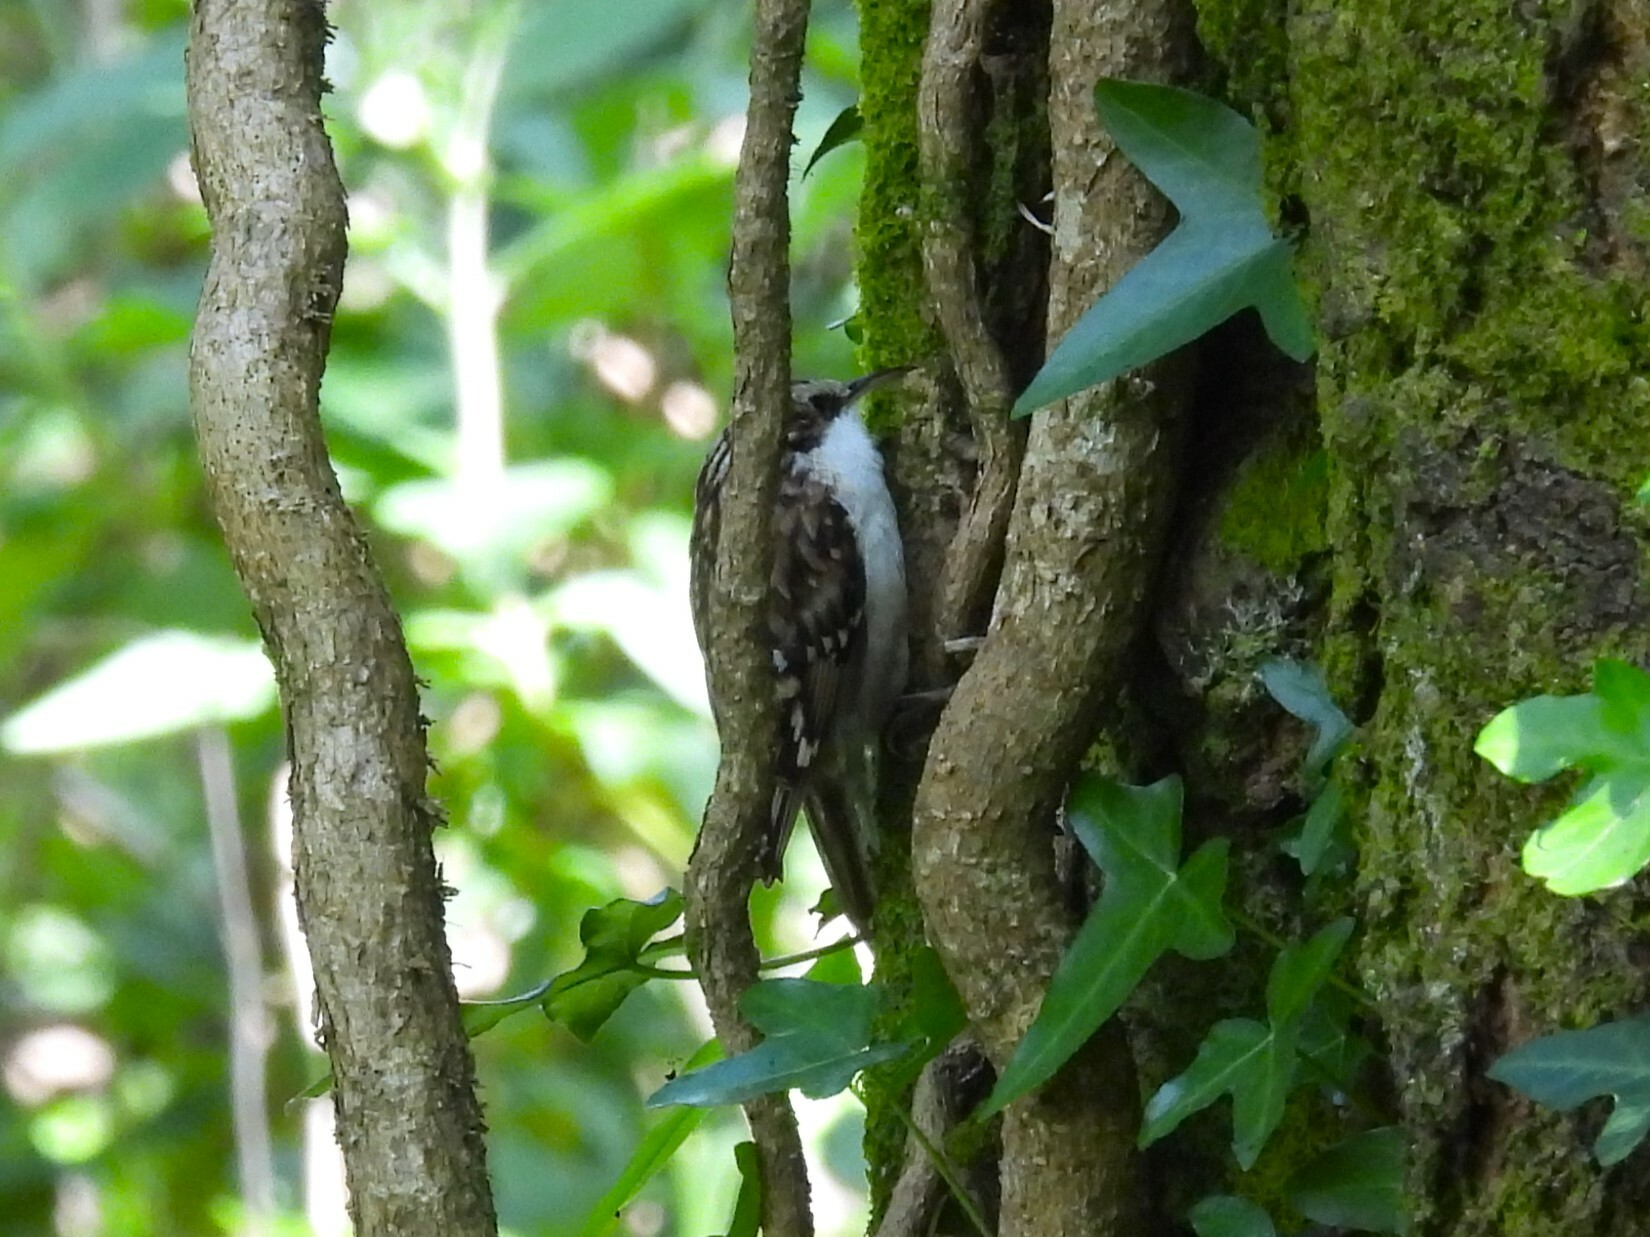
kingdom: Animalia
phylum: Chordata
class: Aves
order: Passeriformes
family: Certhiidae
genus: Certhia
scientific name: Certhia familiaris
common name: Eurasian treecreeper
